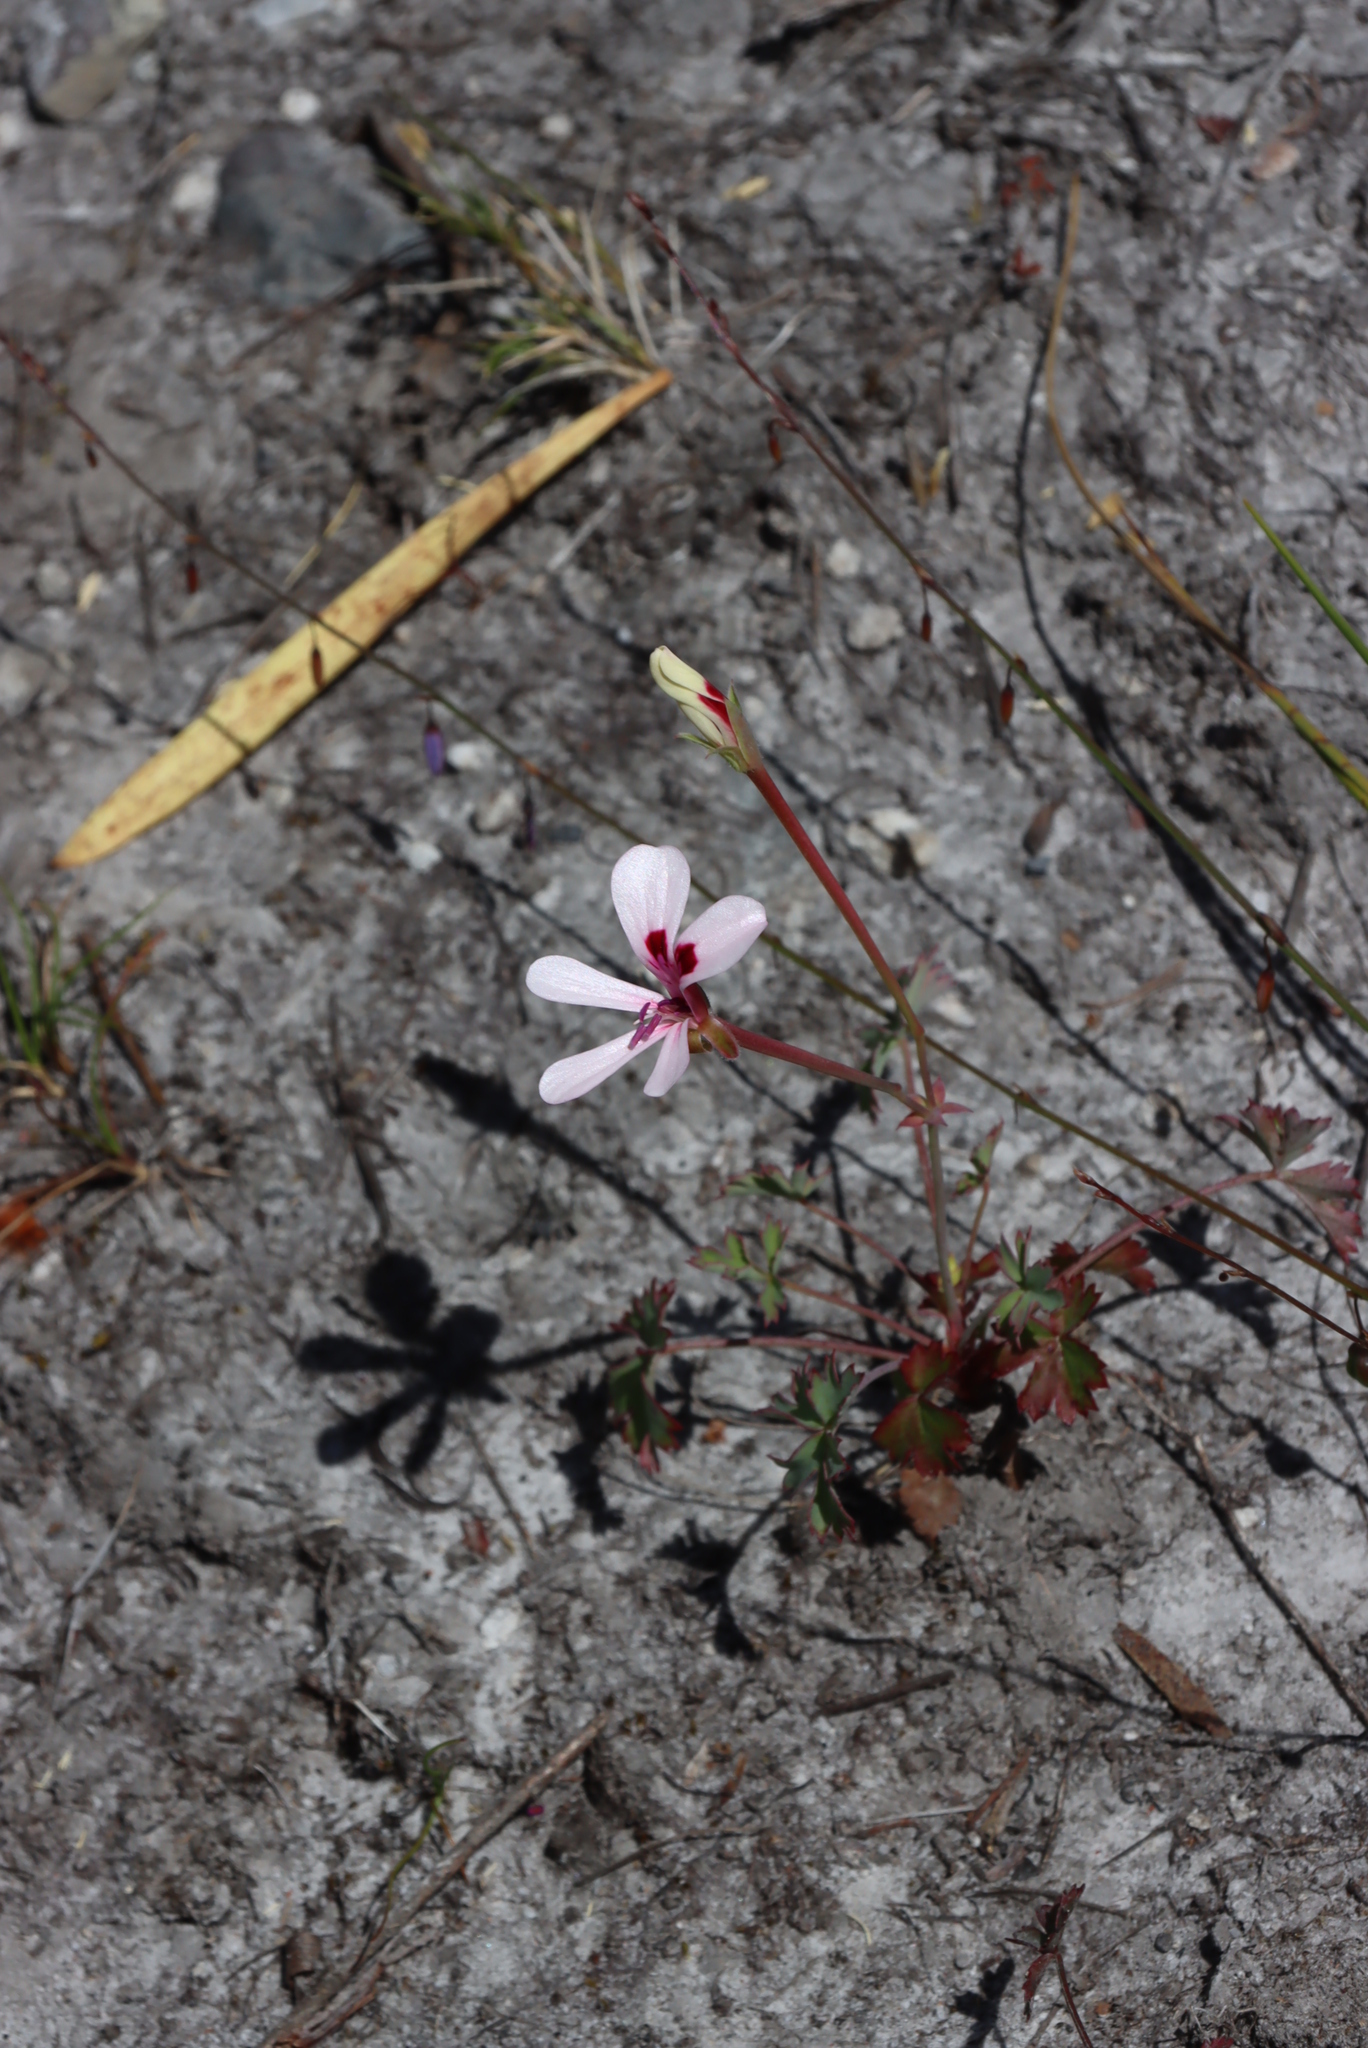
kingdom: Plantae
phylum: Tracheophyta
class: Magnoliopsida
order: Geraniales
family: Geraniaceae
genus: Pelargonium
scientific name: Pelargonium patulum
